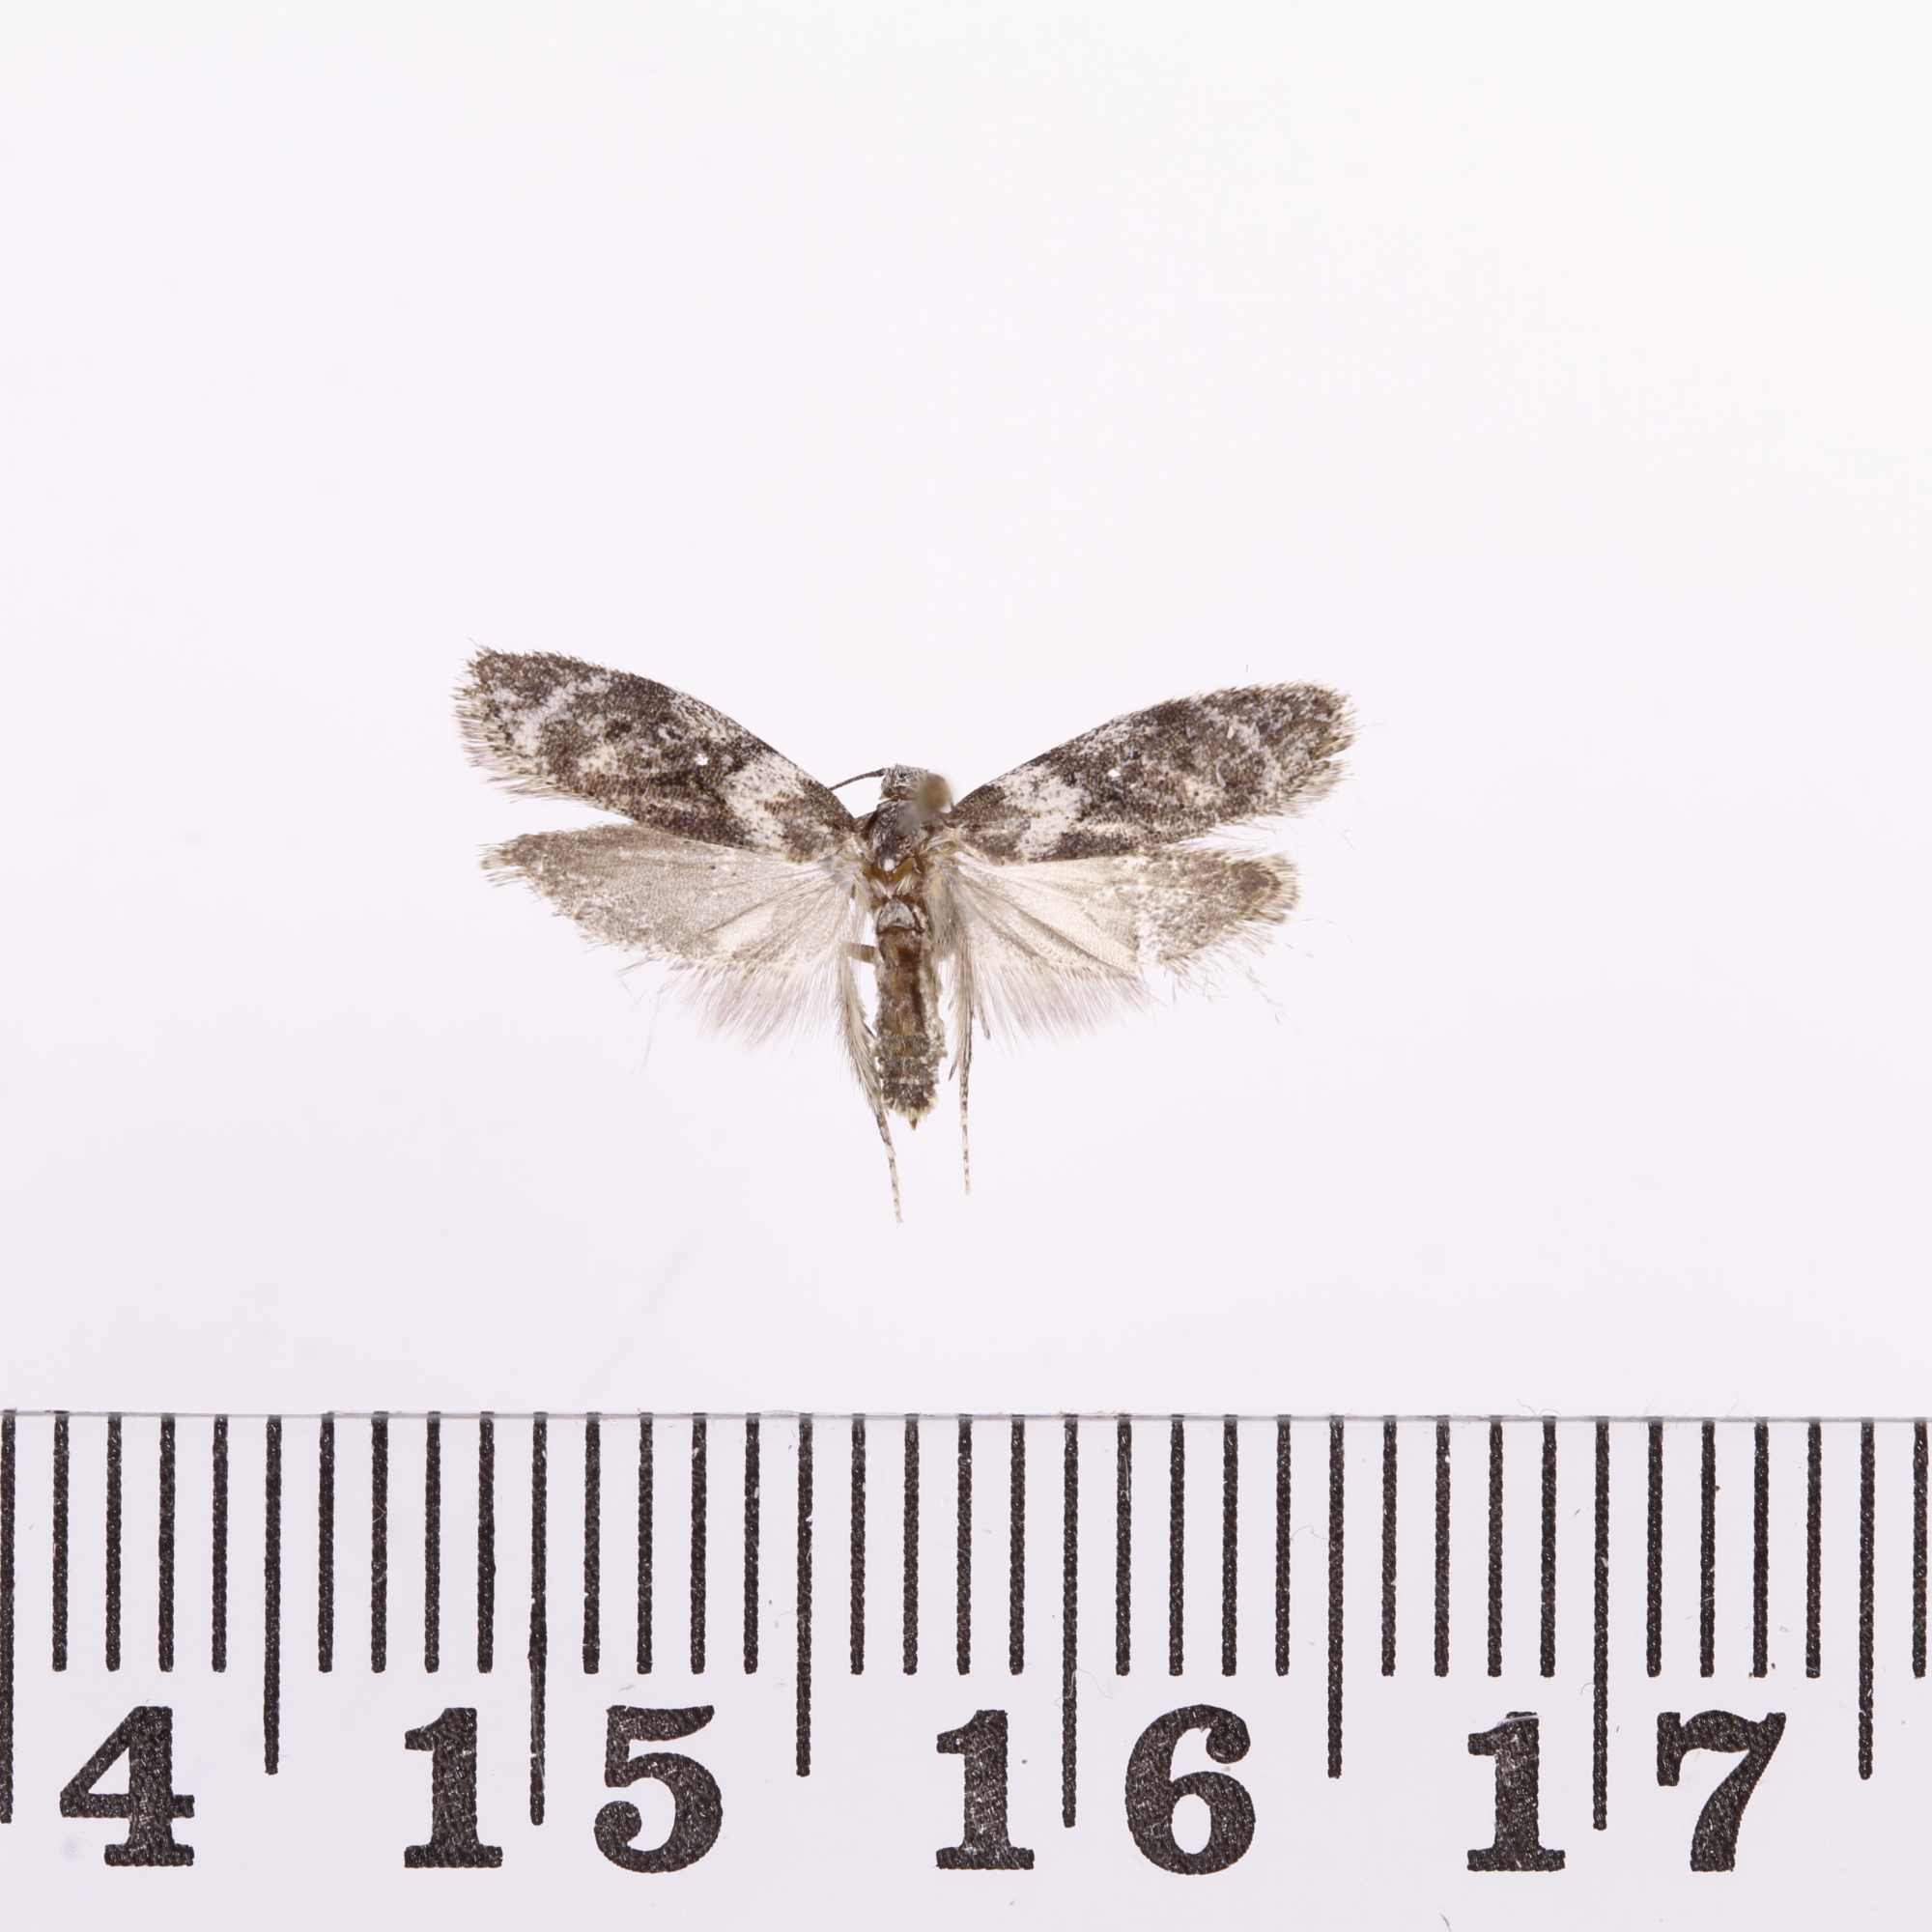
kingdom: Animalia
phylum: Arthropoda
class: Insecta
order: Lepidoptera
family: Oecophoridae
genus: Izatha
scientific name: Izatha convulsella
